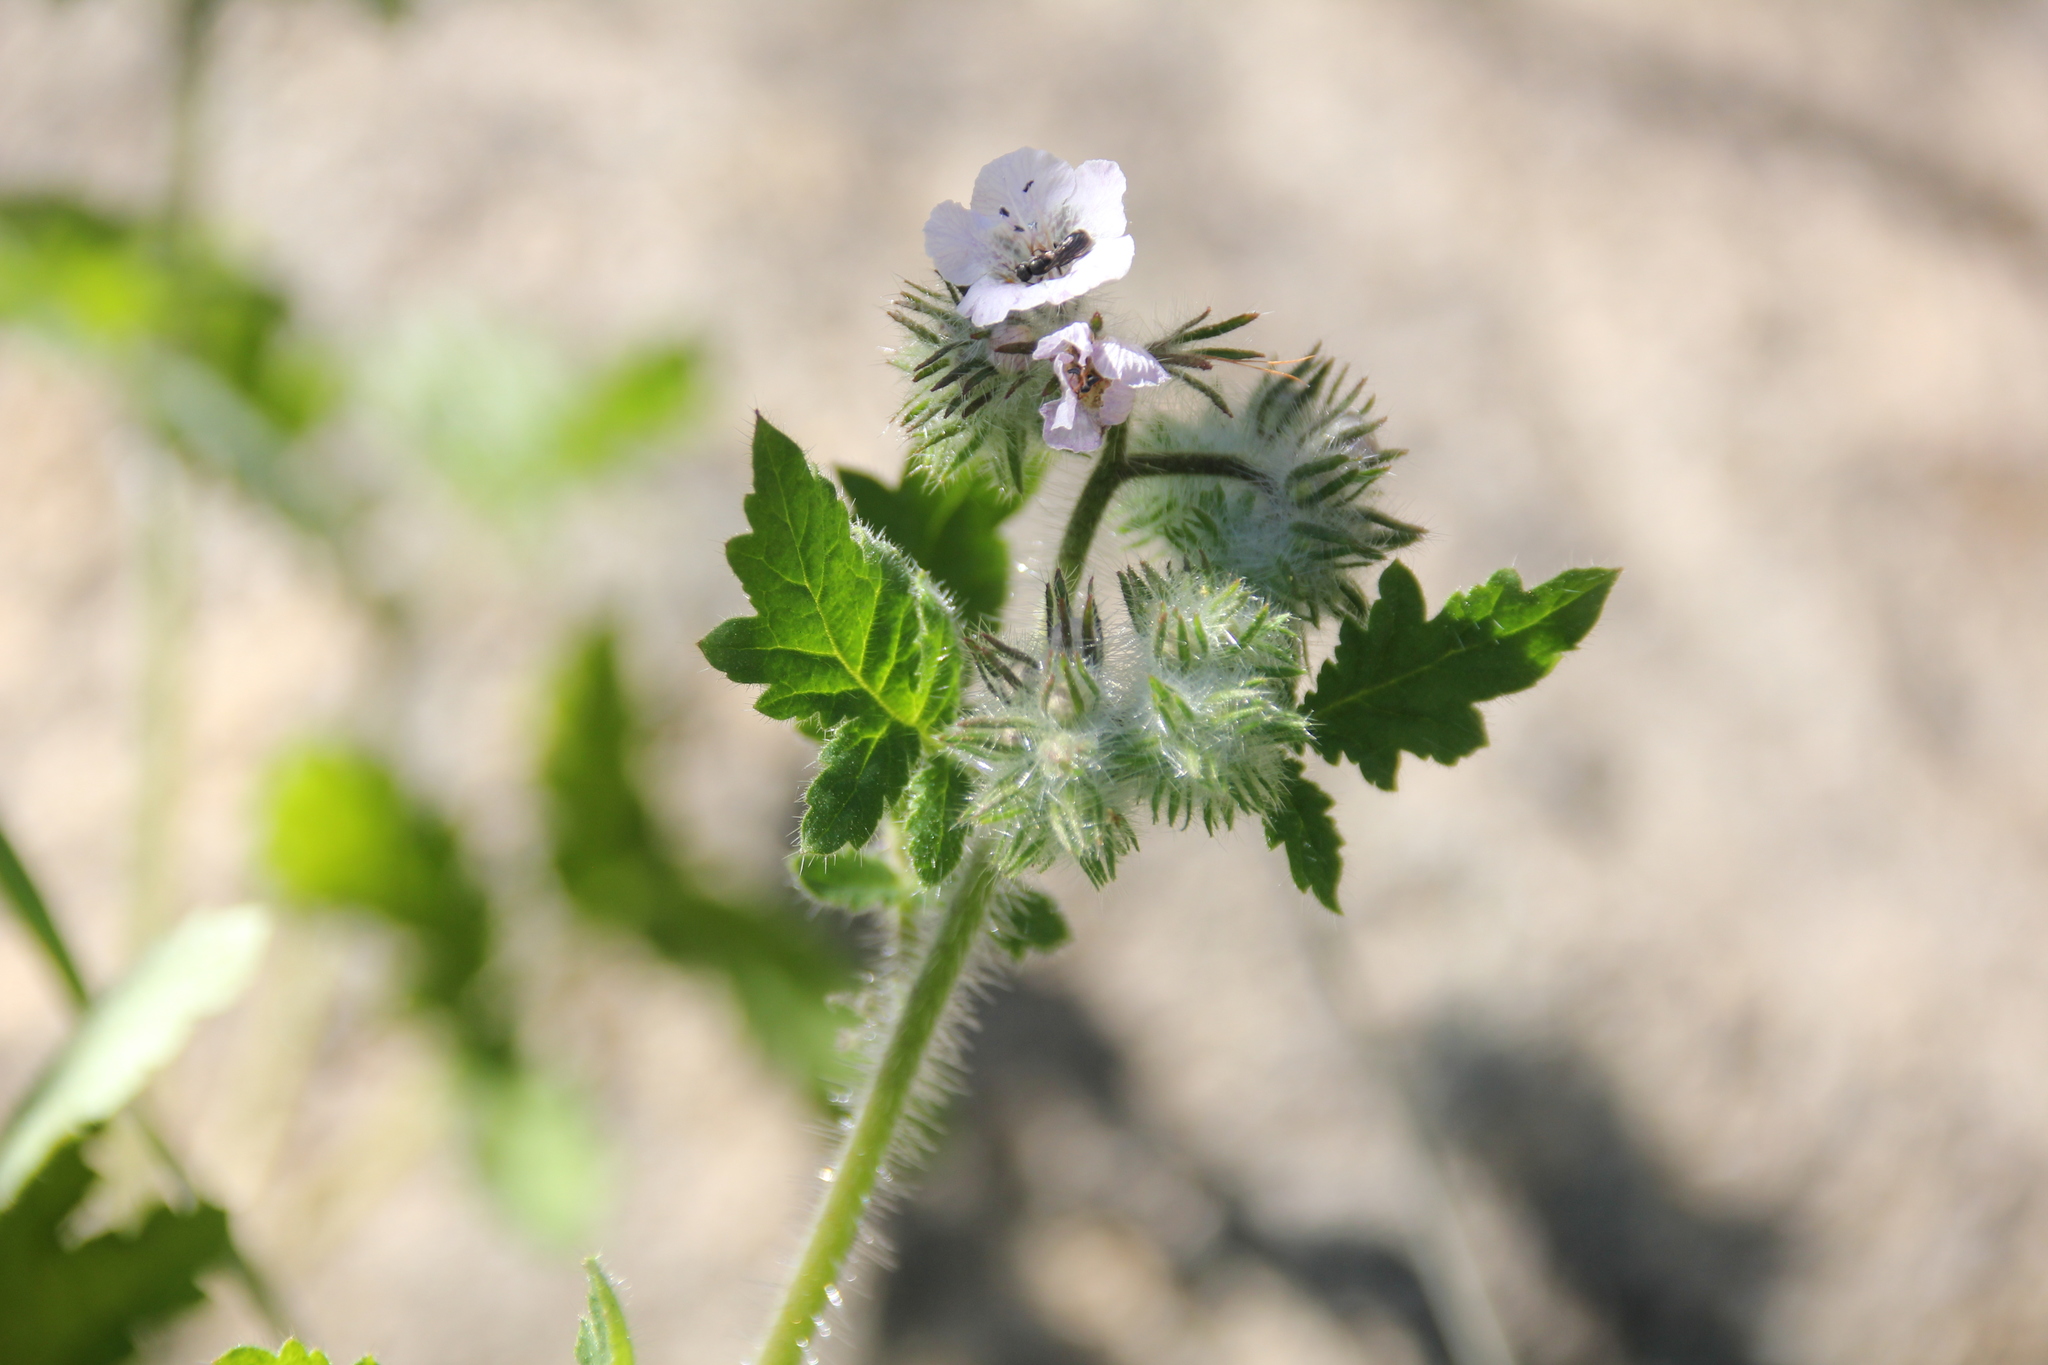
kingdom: Plantae
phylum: Tracheophyta
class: Magnoliopsida
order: Boraginales
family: Hydrophyllaceae
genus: Phacelia
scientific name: Phacelia cicutaria
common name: Caterpillar phacelia
